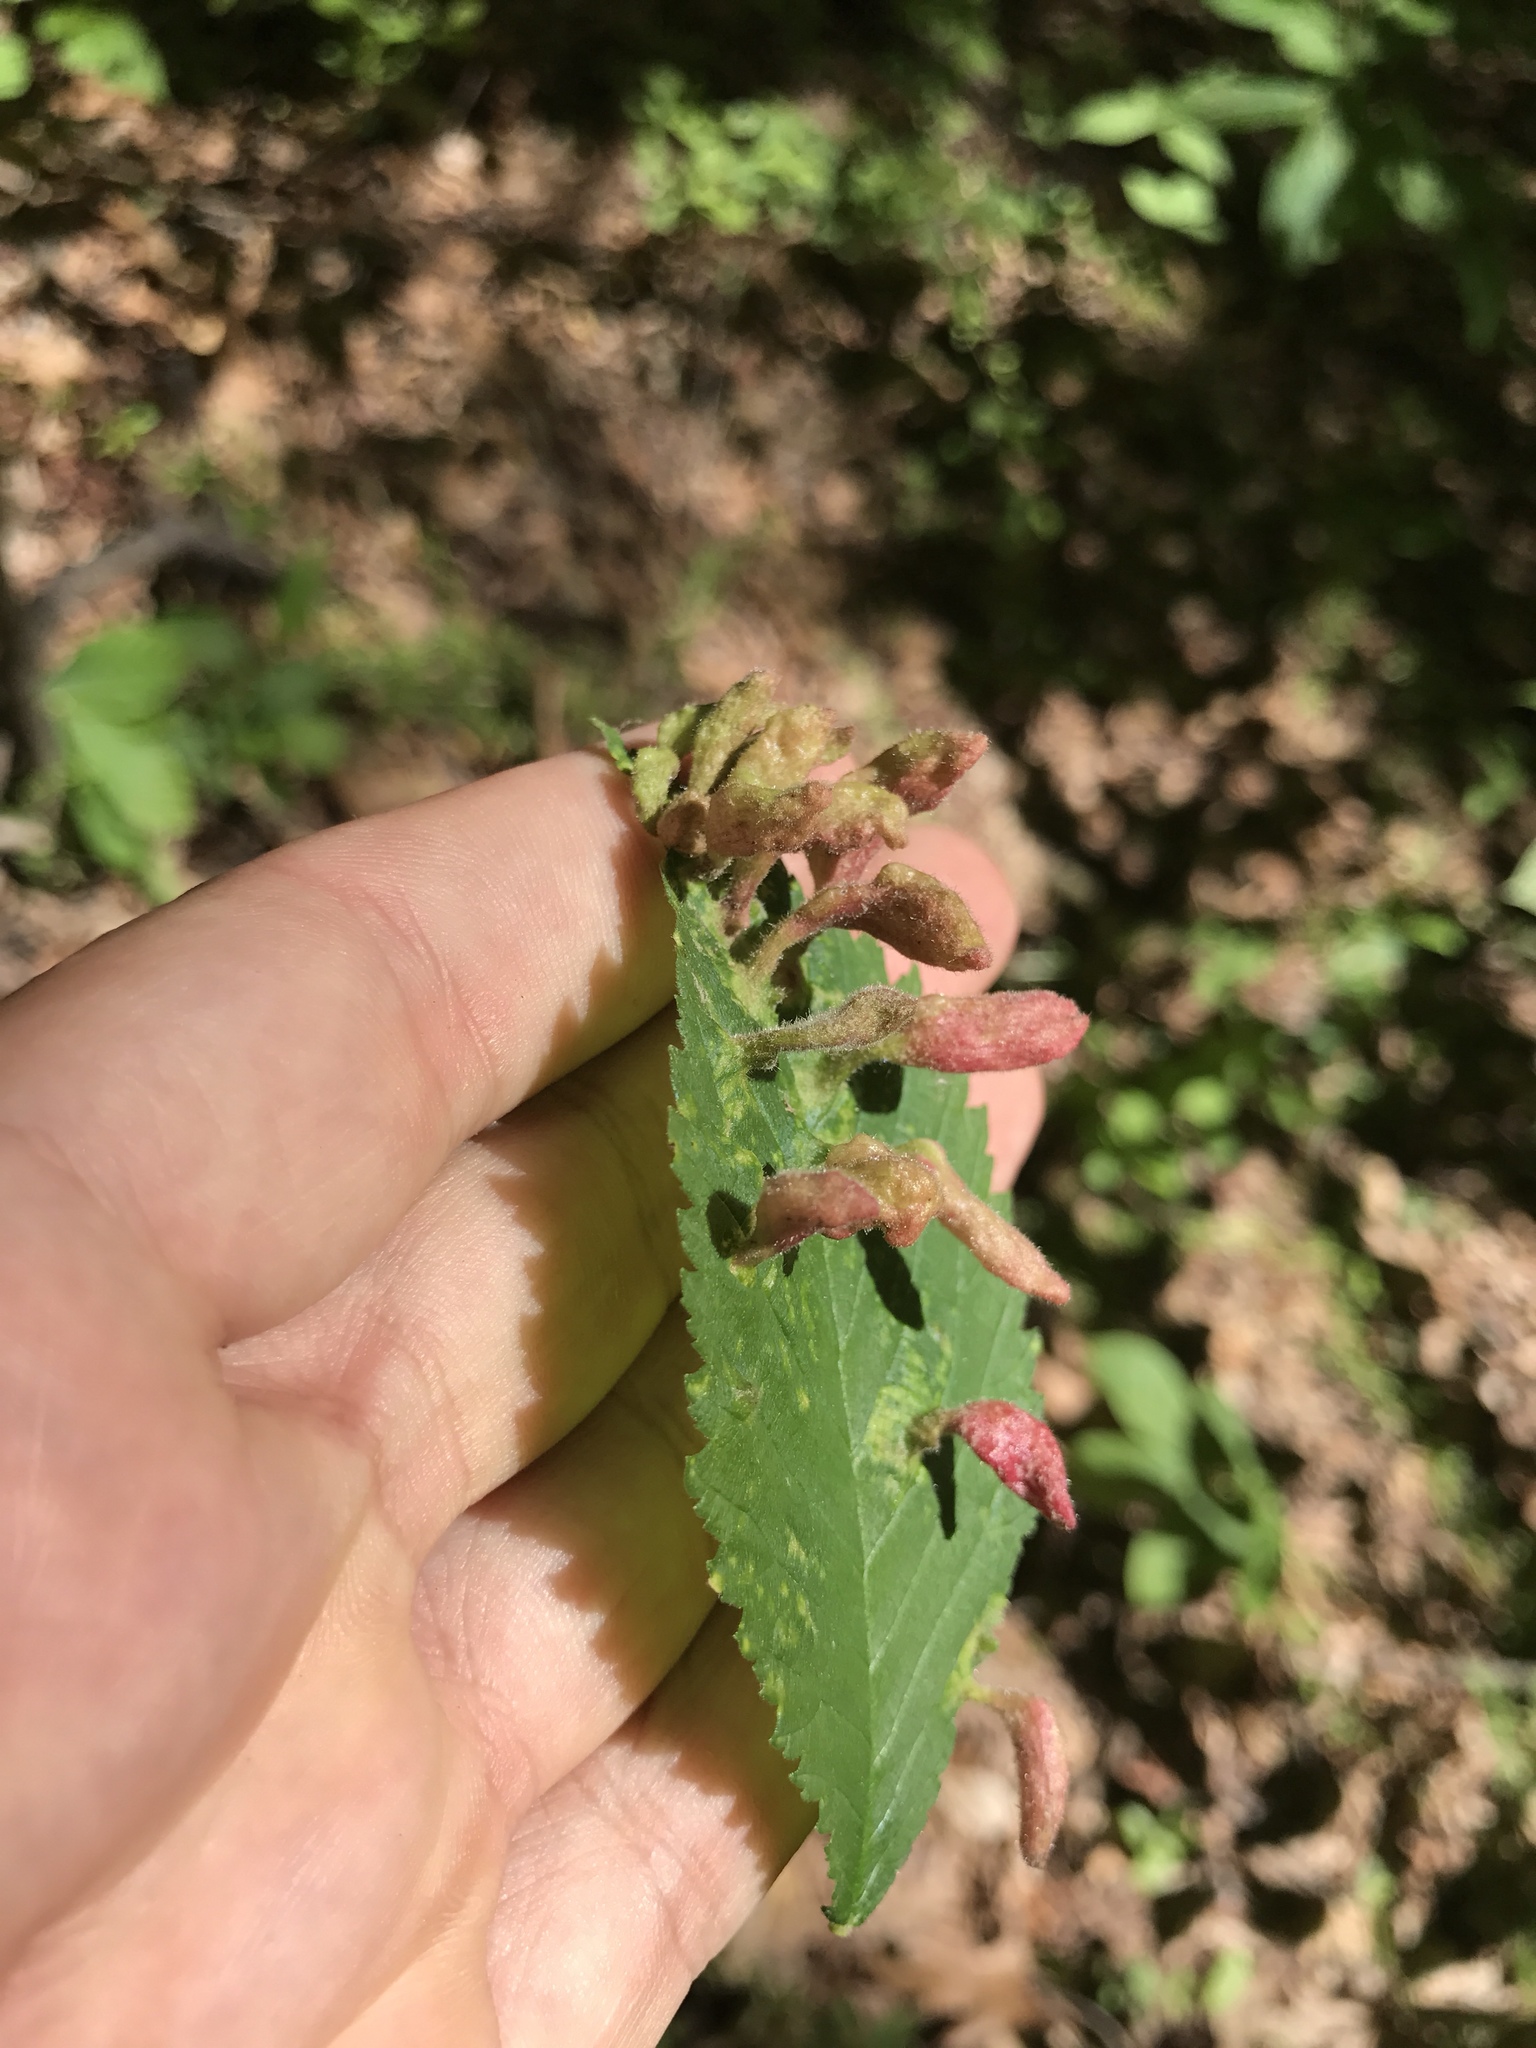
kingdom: Animalia
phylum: Arthropoda
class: Insecta
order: Hemiptera
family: Aphididae
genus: Tetraneura
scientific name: Tetraneura nigriabdominalis
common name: Aphid
